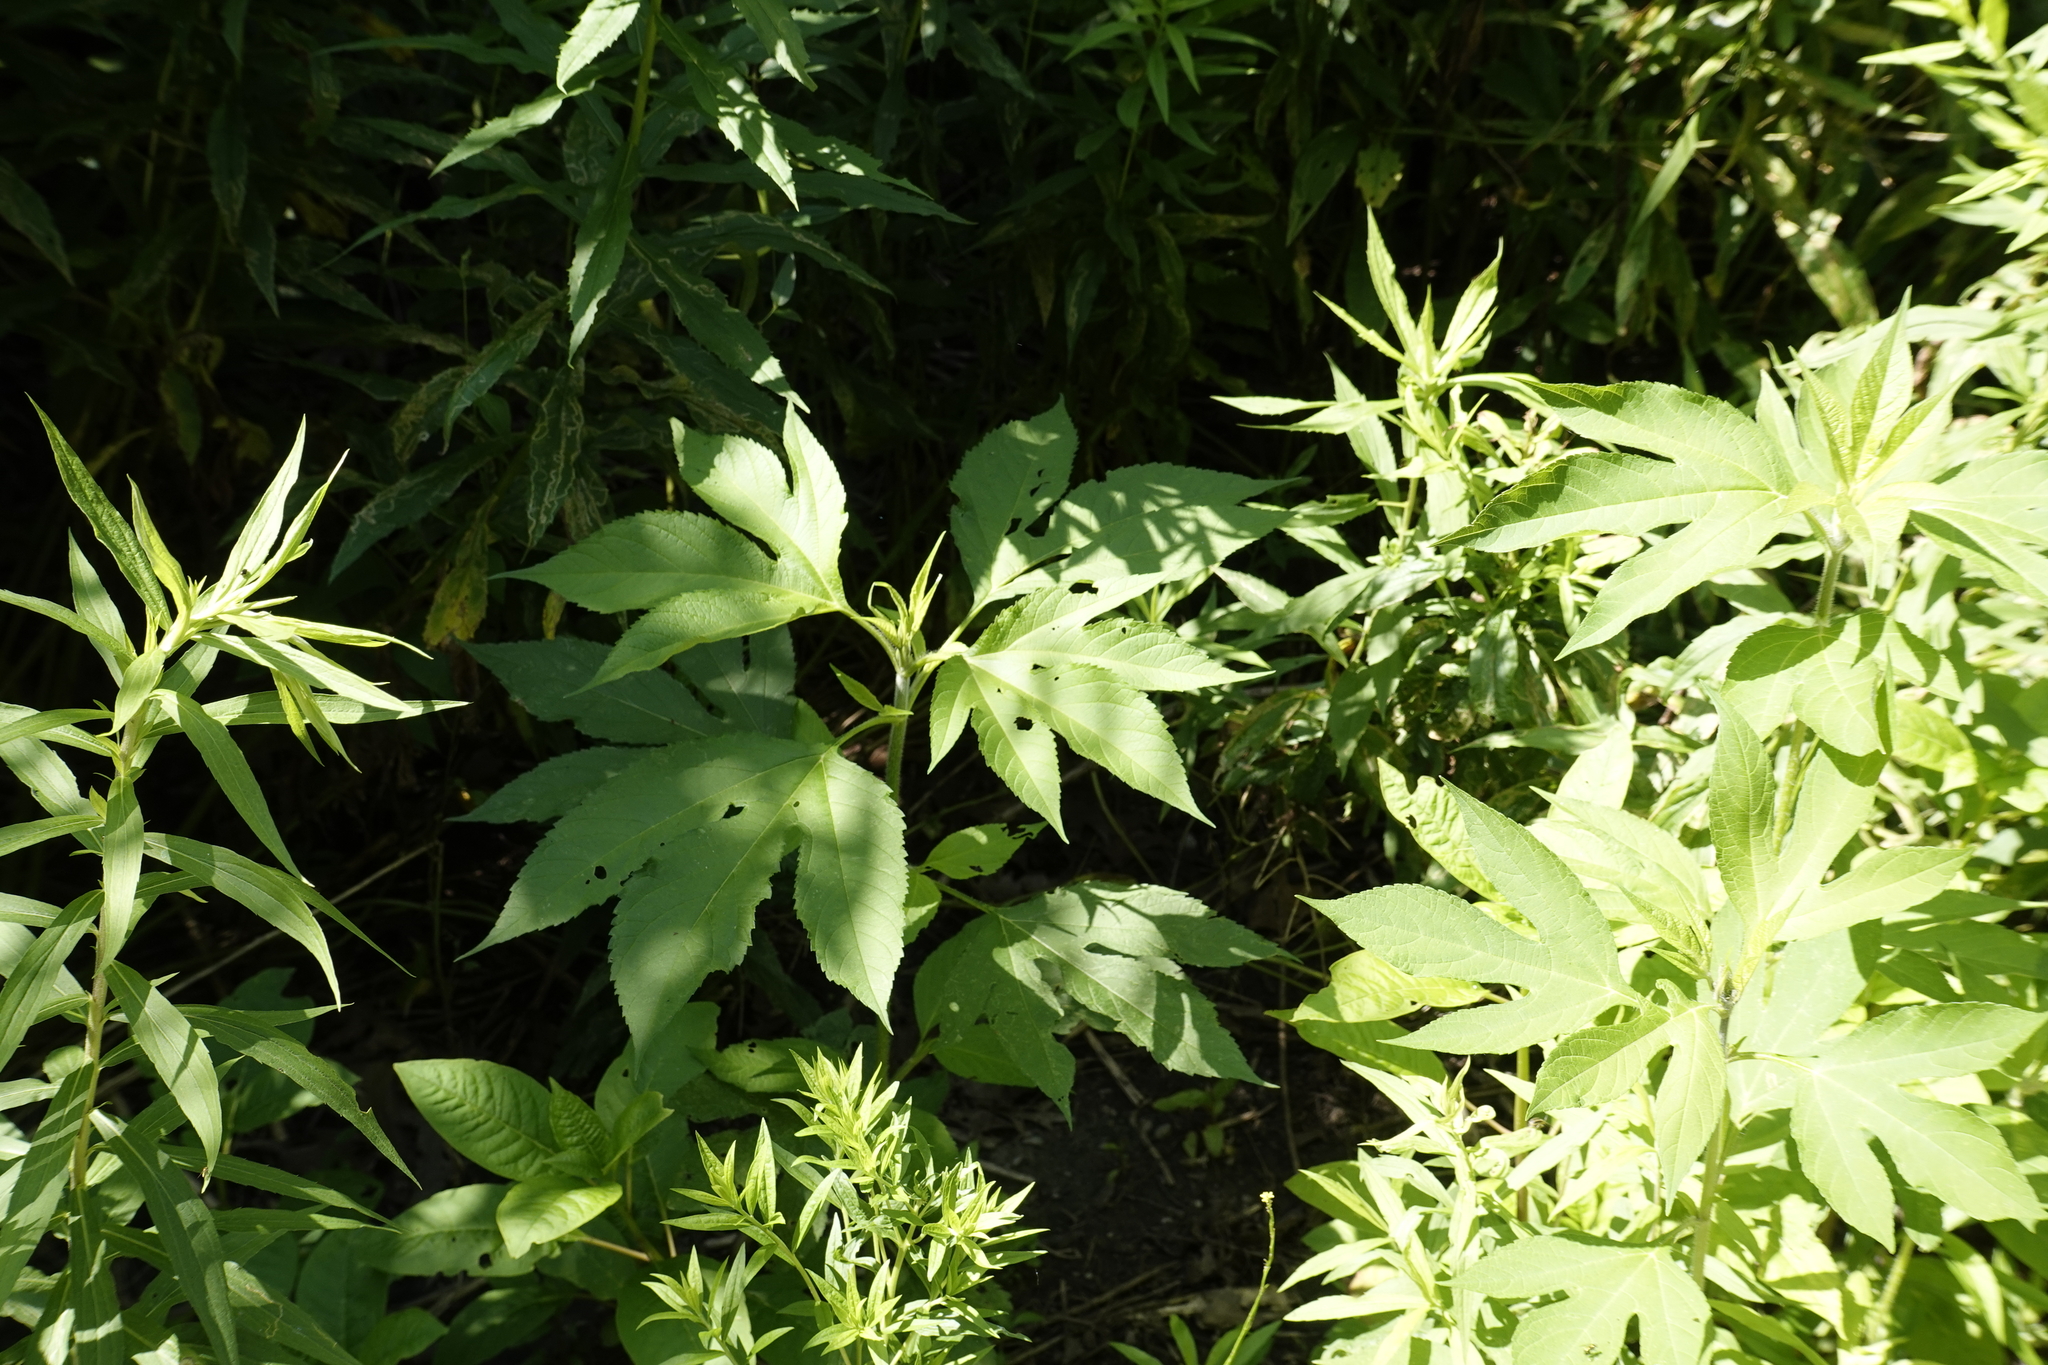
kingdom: Plantae
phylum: Tracheophyta
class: Magnoliopsida
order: Asterales
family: Asteraceae
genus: Ambrosia
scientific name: Ambrosia trifida
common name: Giant ragweed
